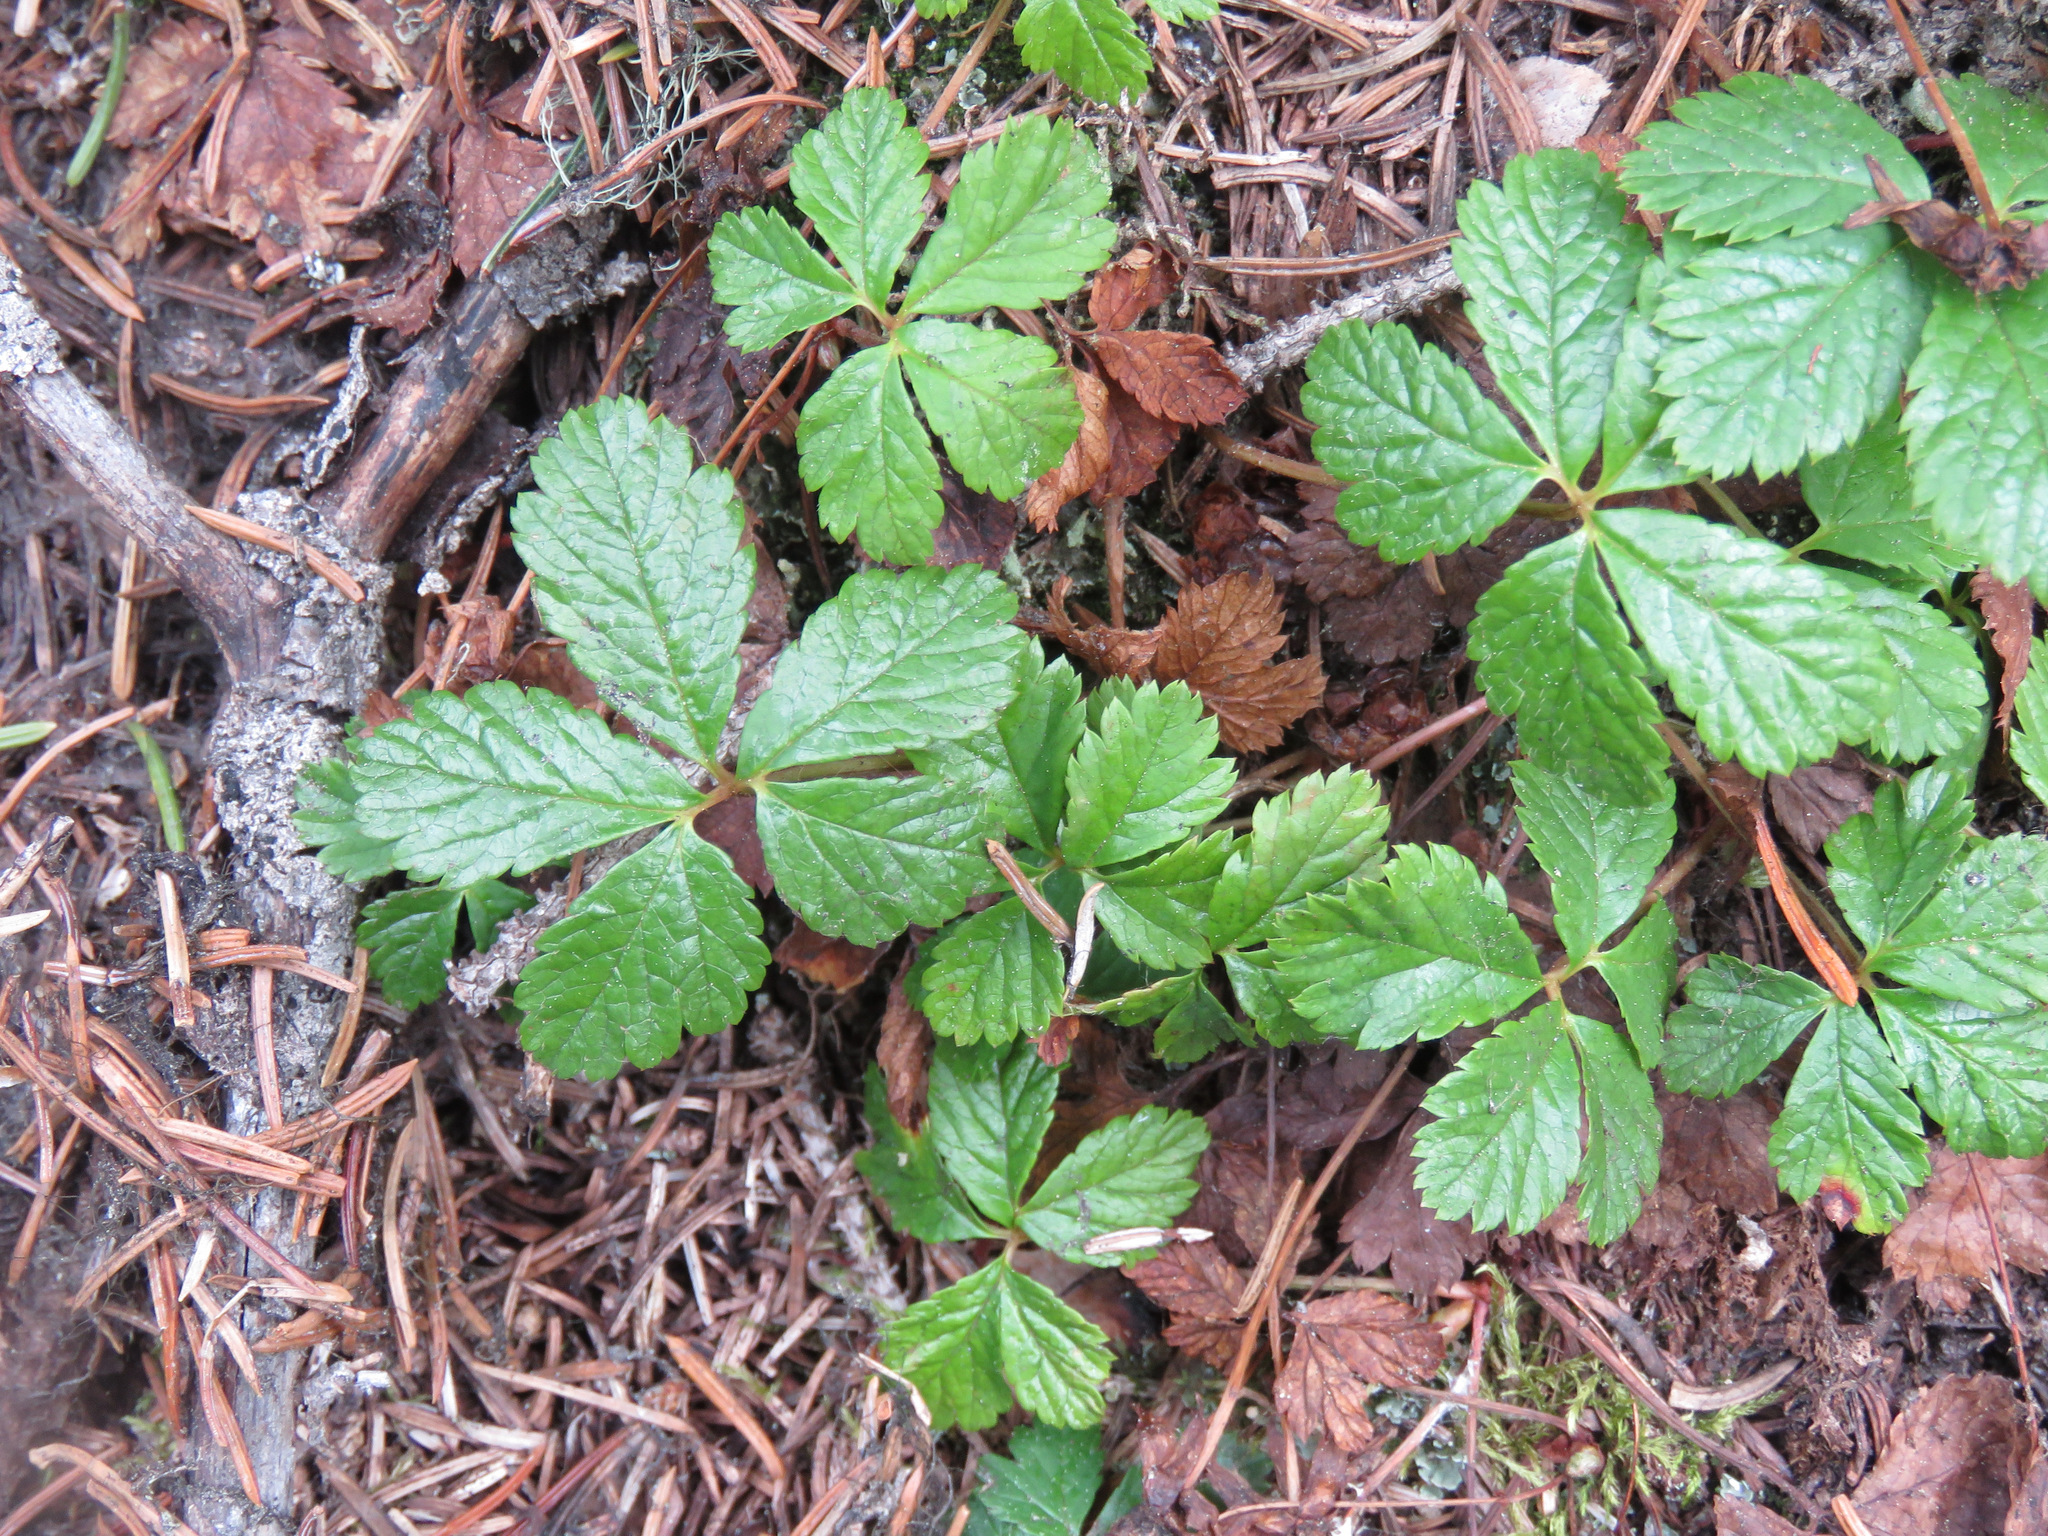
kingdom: Plantae
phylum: Tracheophyta
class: Magnoliopsida
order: Rosales
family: Rosaceae
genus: Rubus
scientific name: Rubus pedatus
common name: Creeping raspberry
